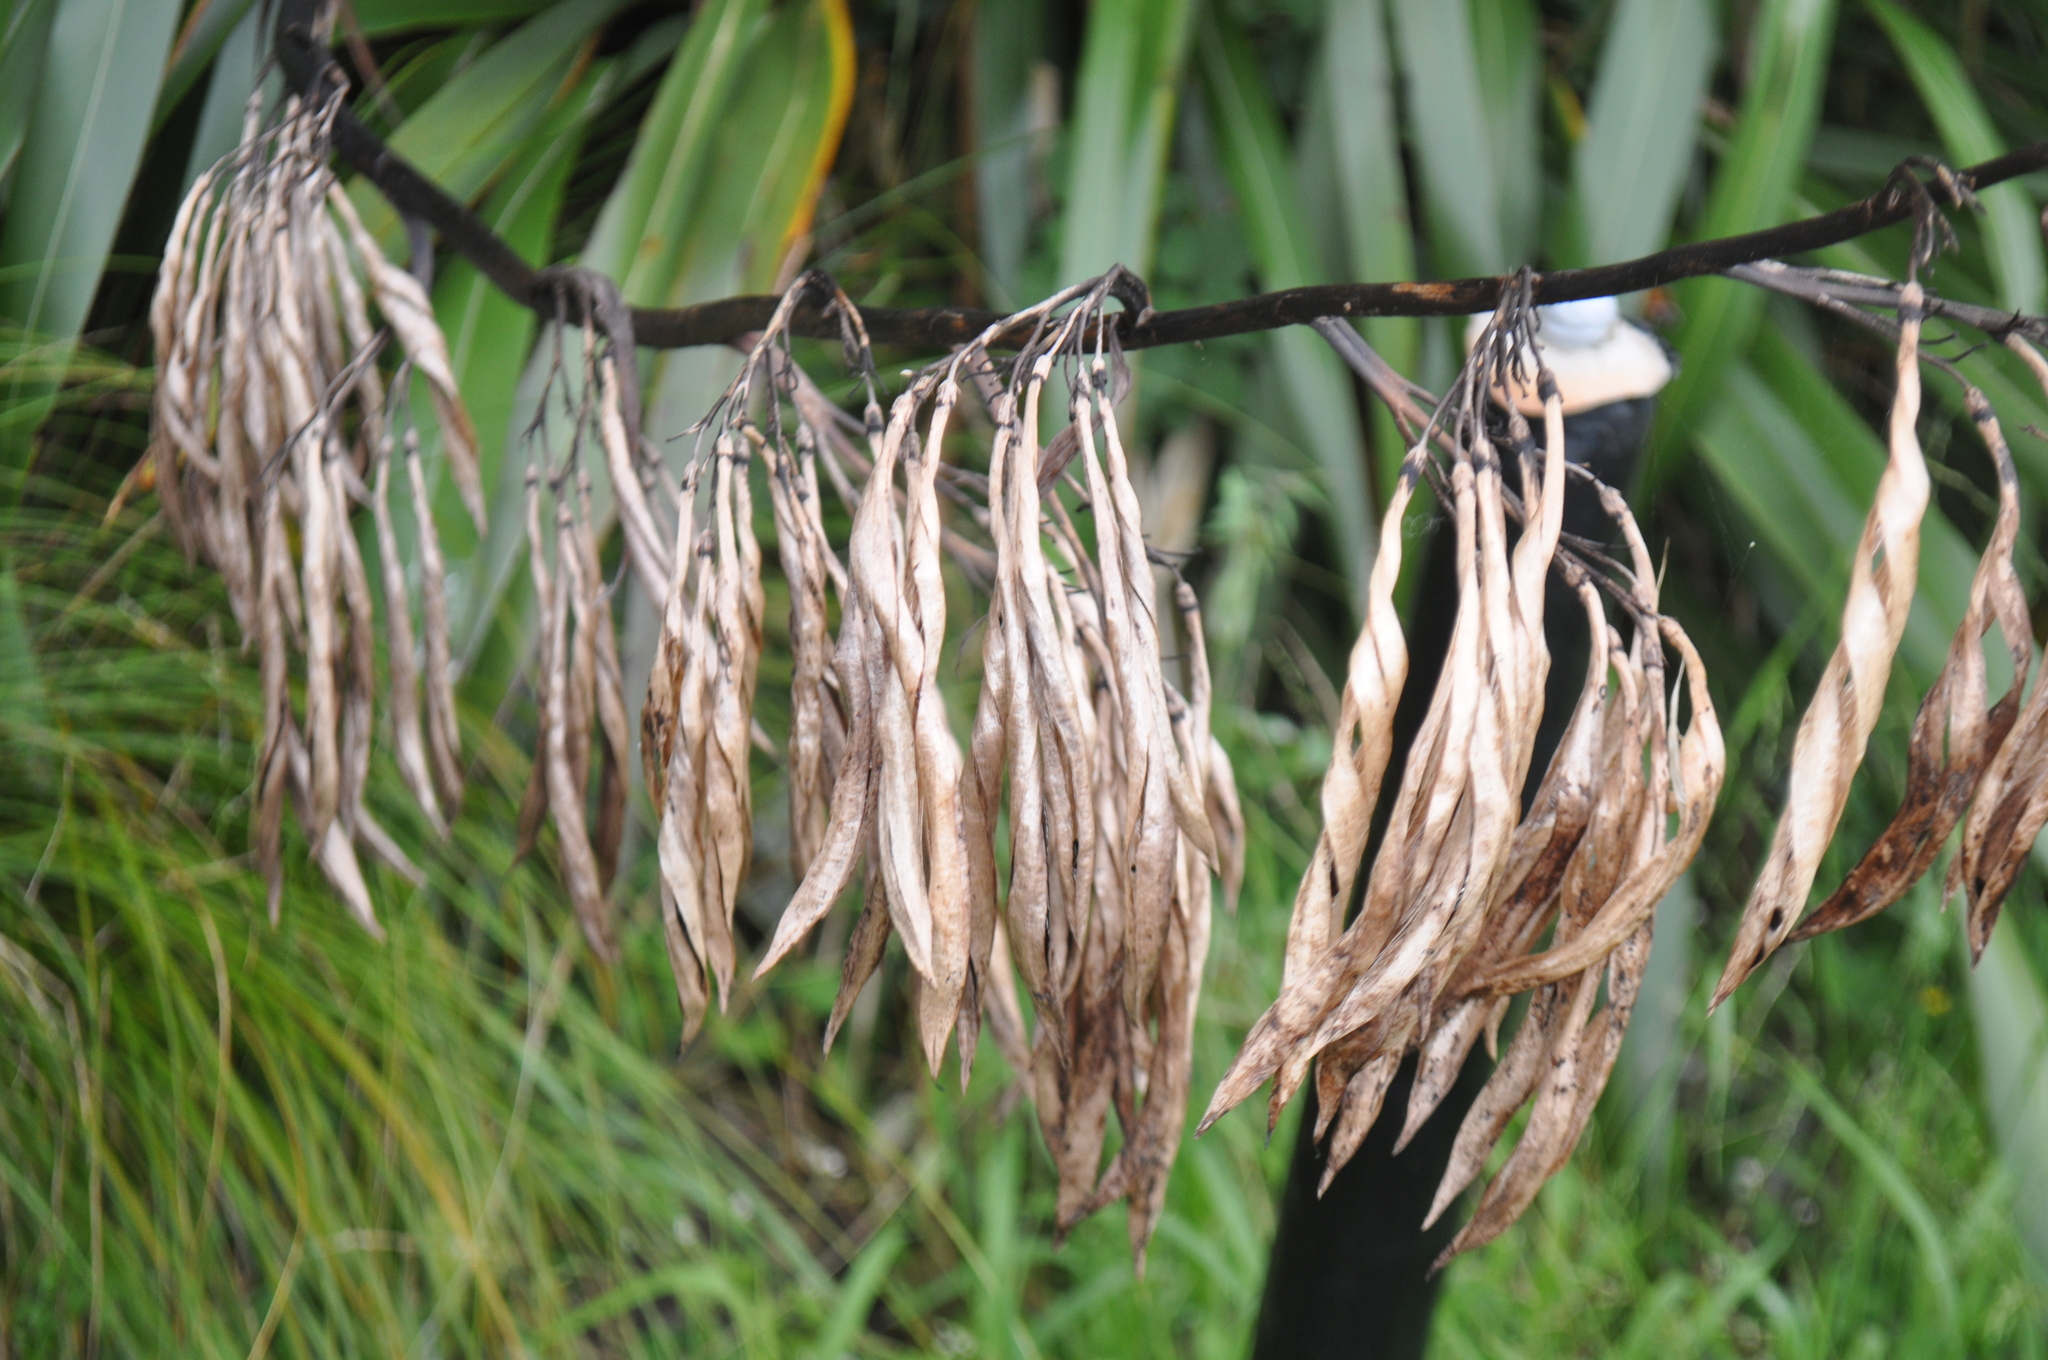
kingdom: Plantae
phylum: Tracheophyta
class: Liliopsida
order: Asparagales
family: Asphodelaceae
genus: Phormium
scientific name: Phormium colensoi
